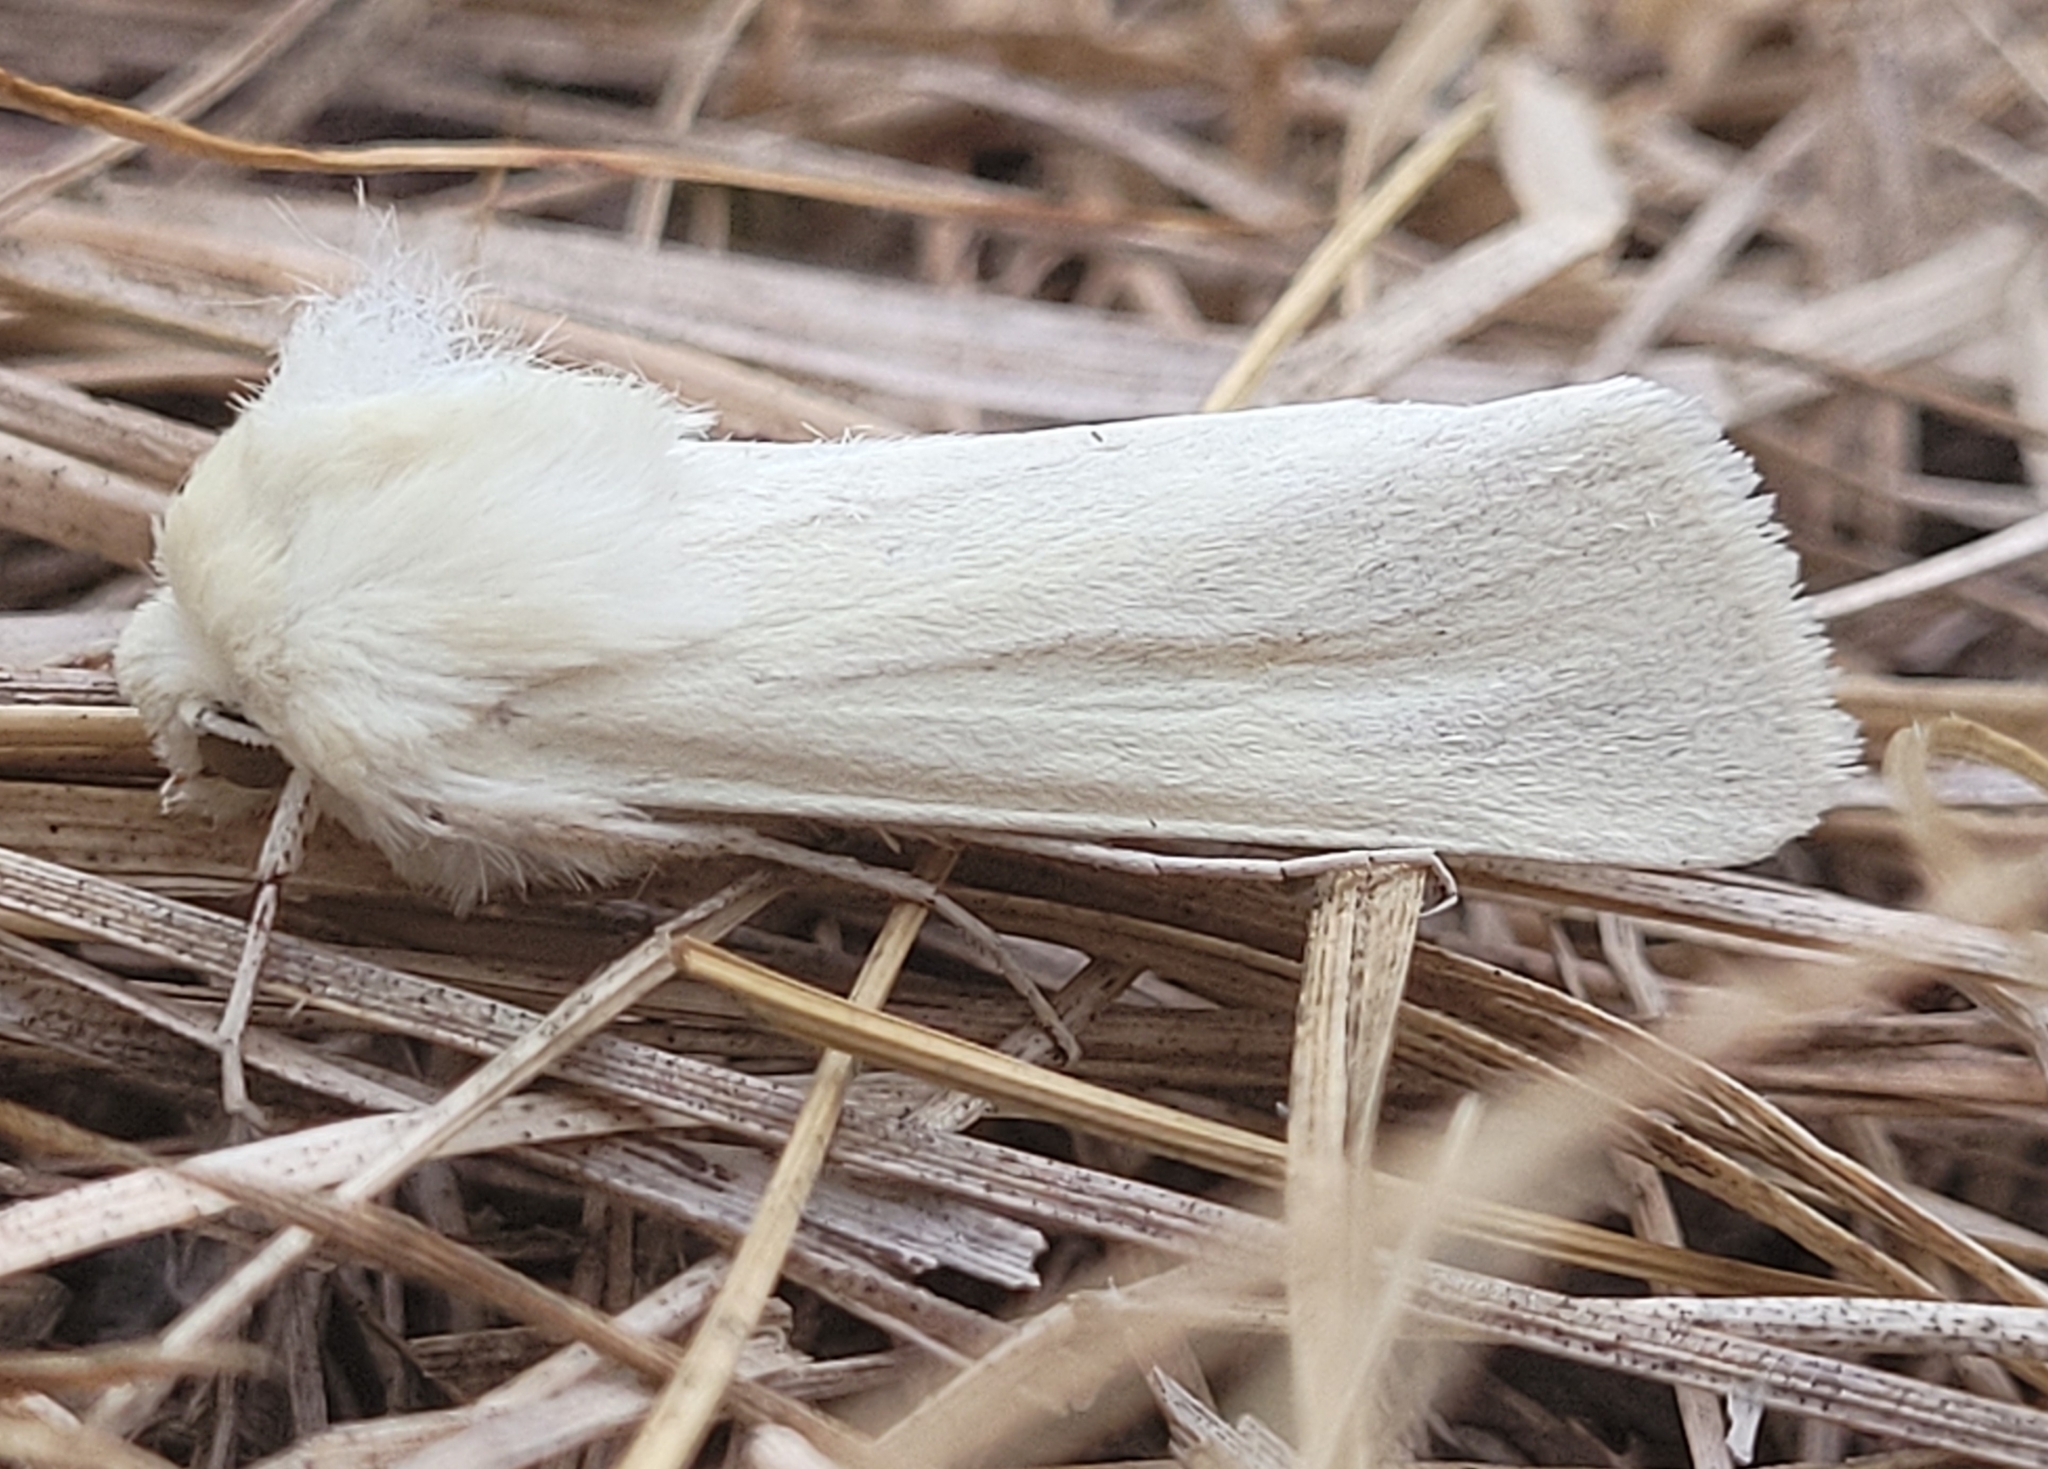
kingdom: Animalia
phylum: Arthropoda
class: Insecta
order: Lepidoptera
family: Noctuidae
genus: Copablepharon
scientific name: Copablepharon viridisparsa
